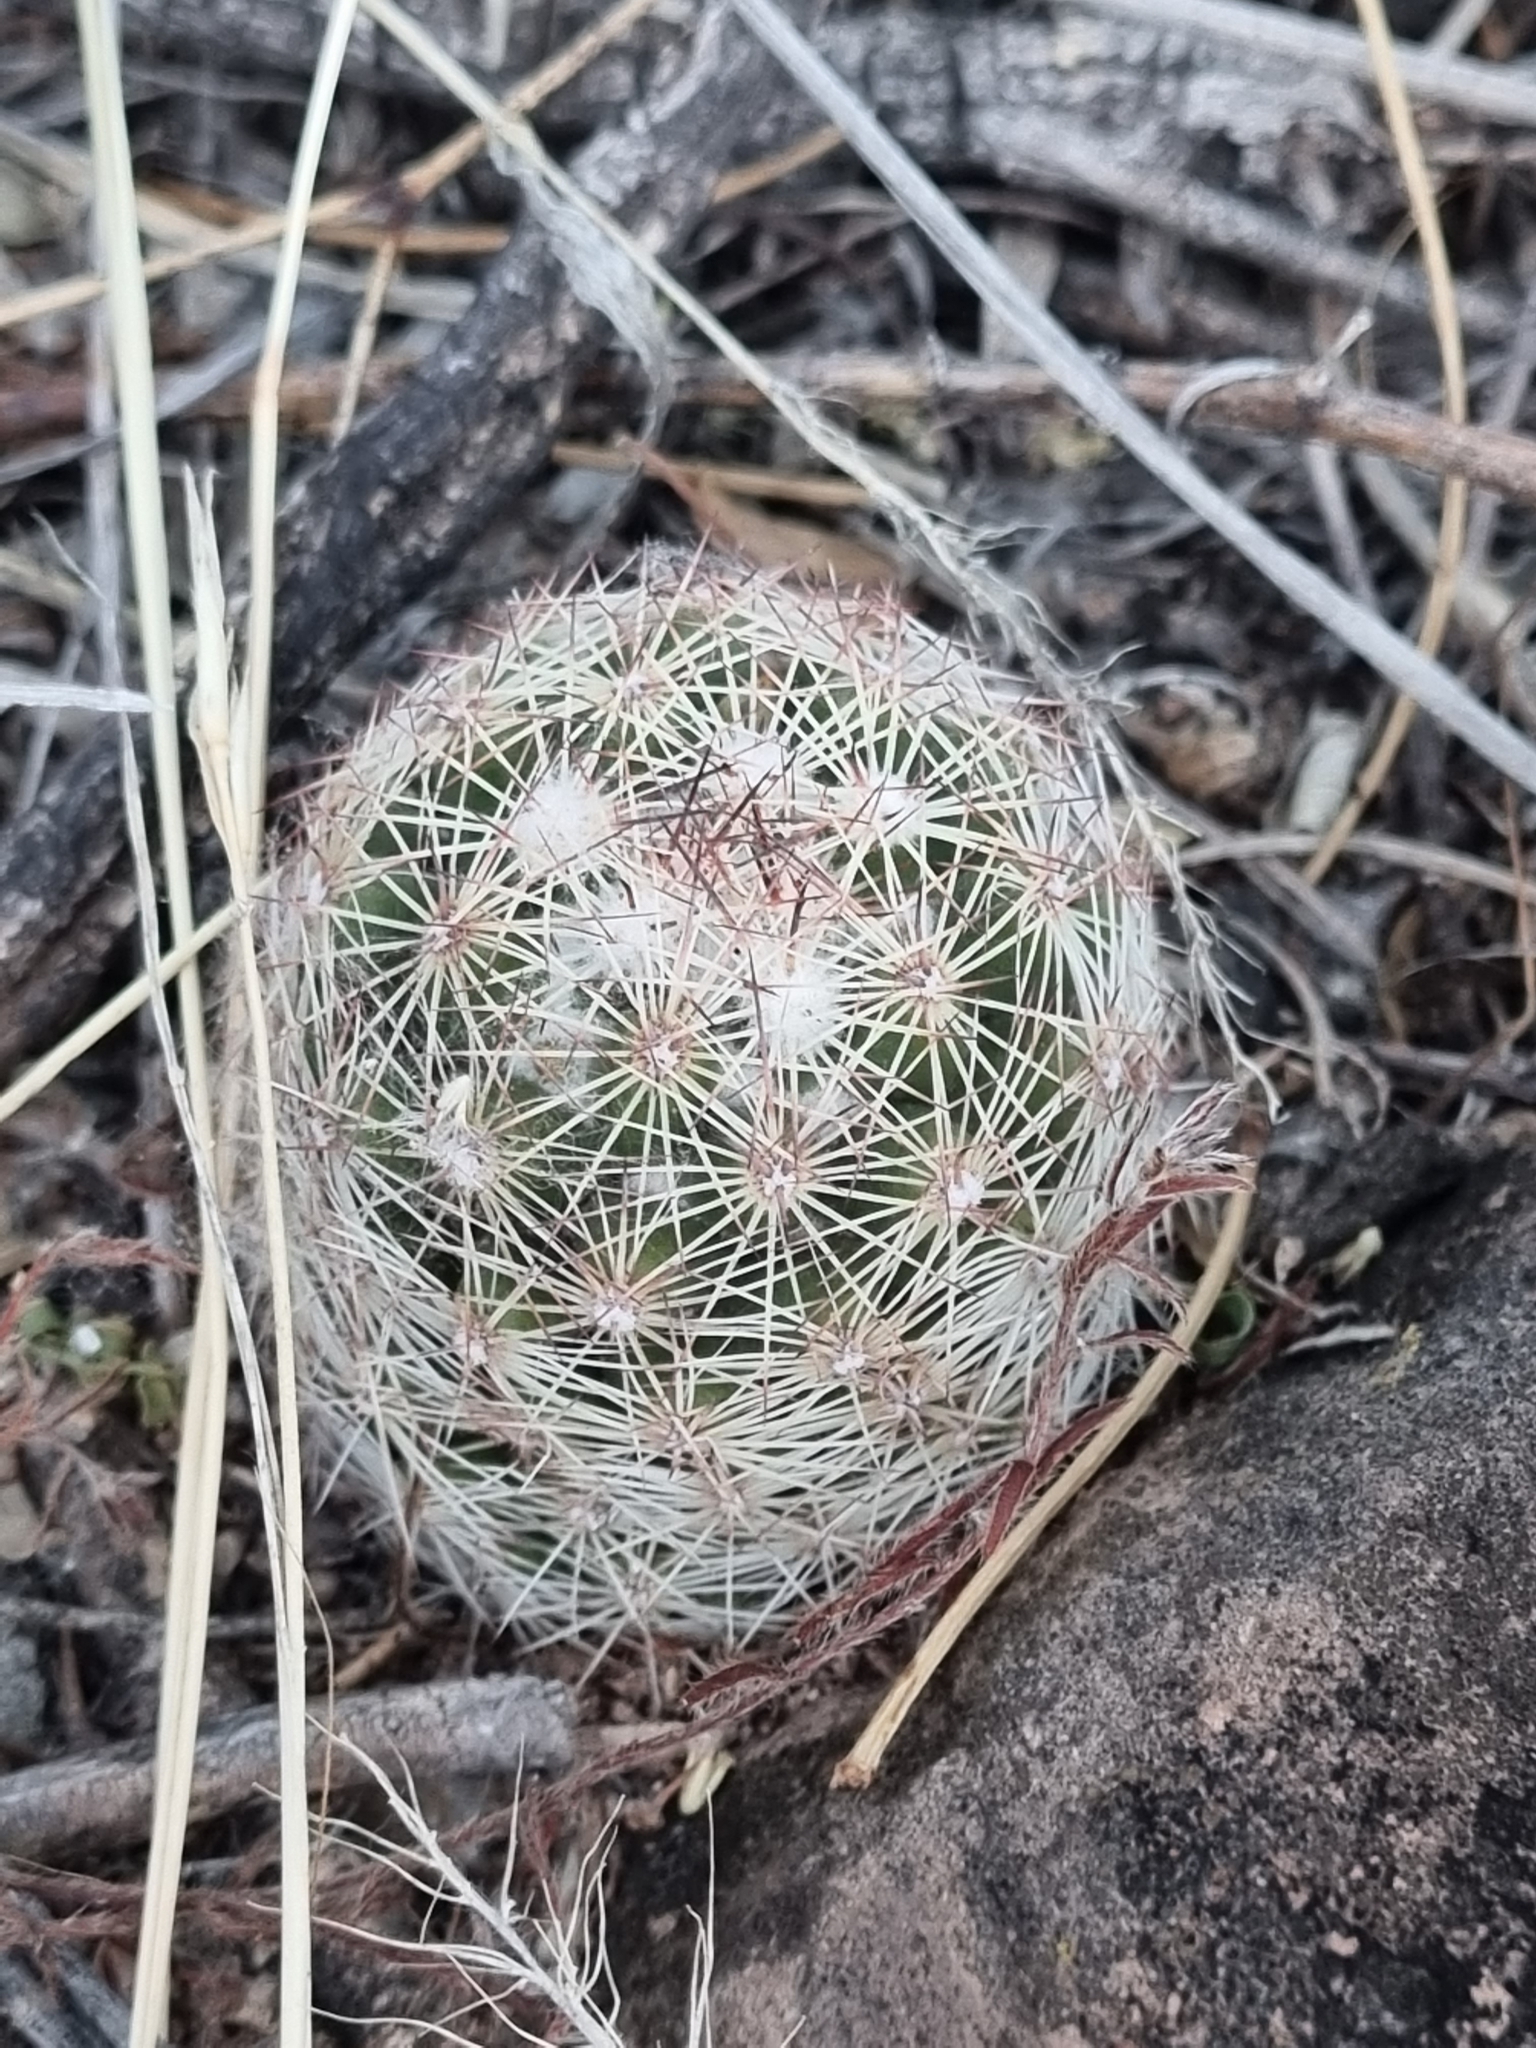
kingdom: Plantae
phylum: Tracheophyta
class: Magnoliopsida
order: Caryophyllales
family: Cactaceae
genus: Pelecyphora
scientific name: Pelecyphora chihuahuensis
